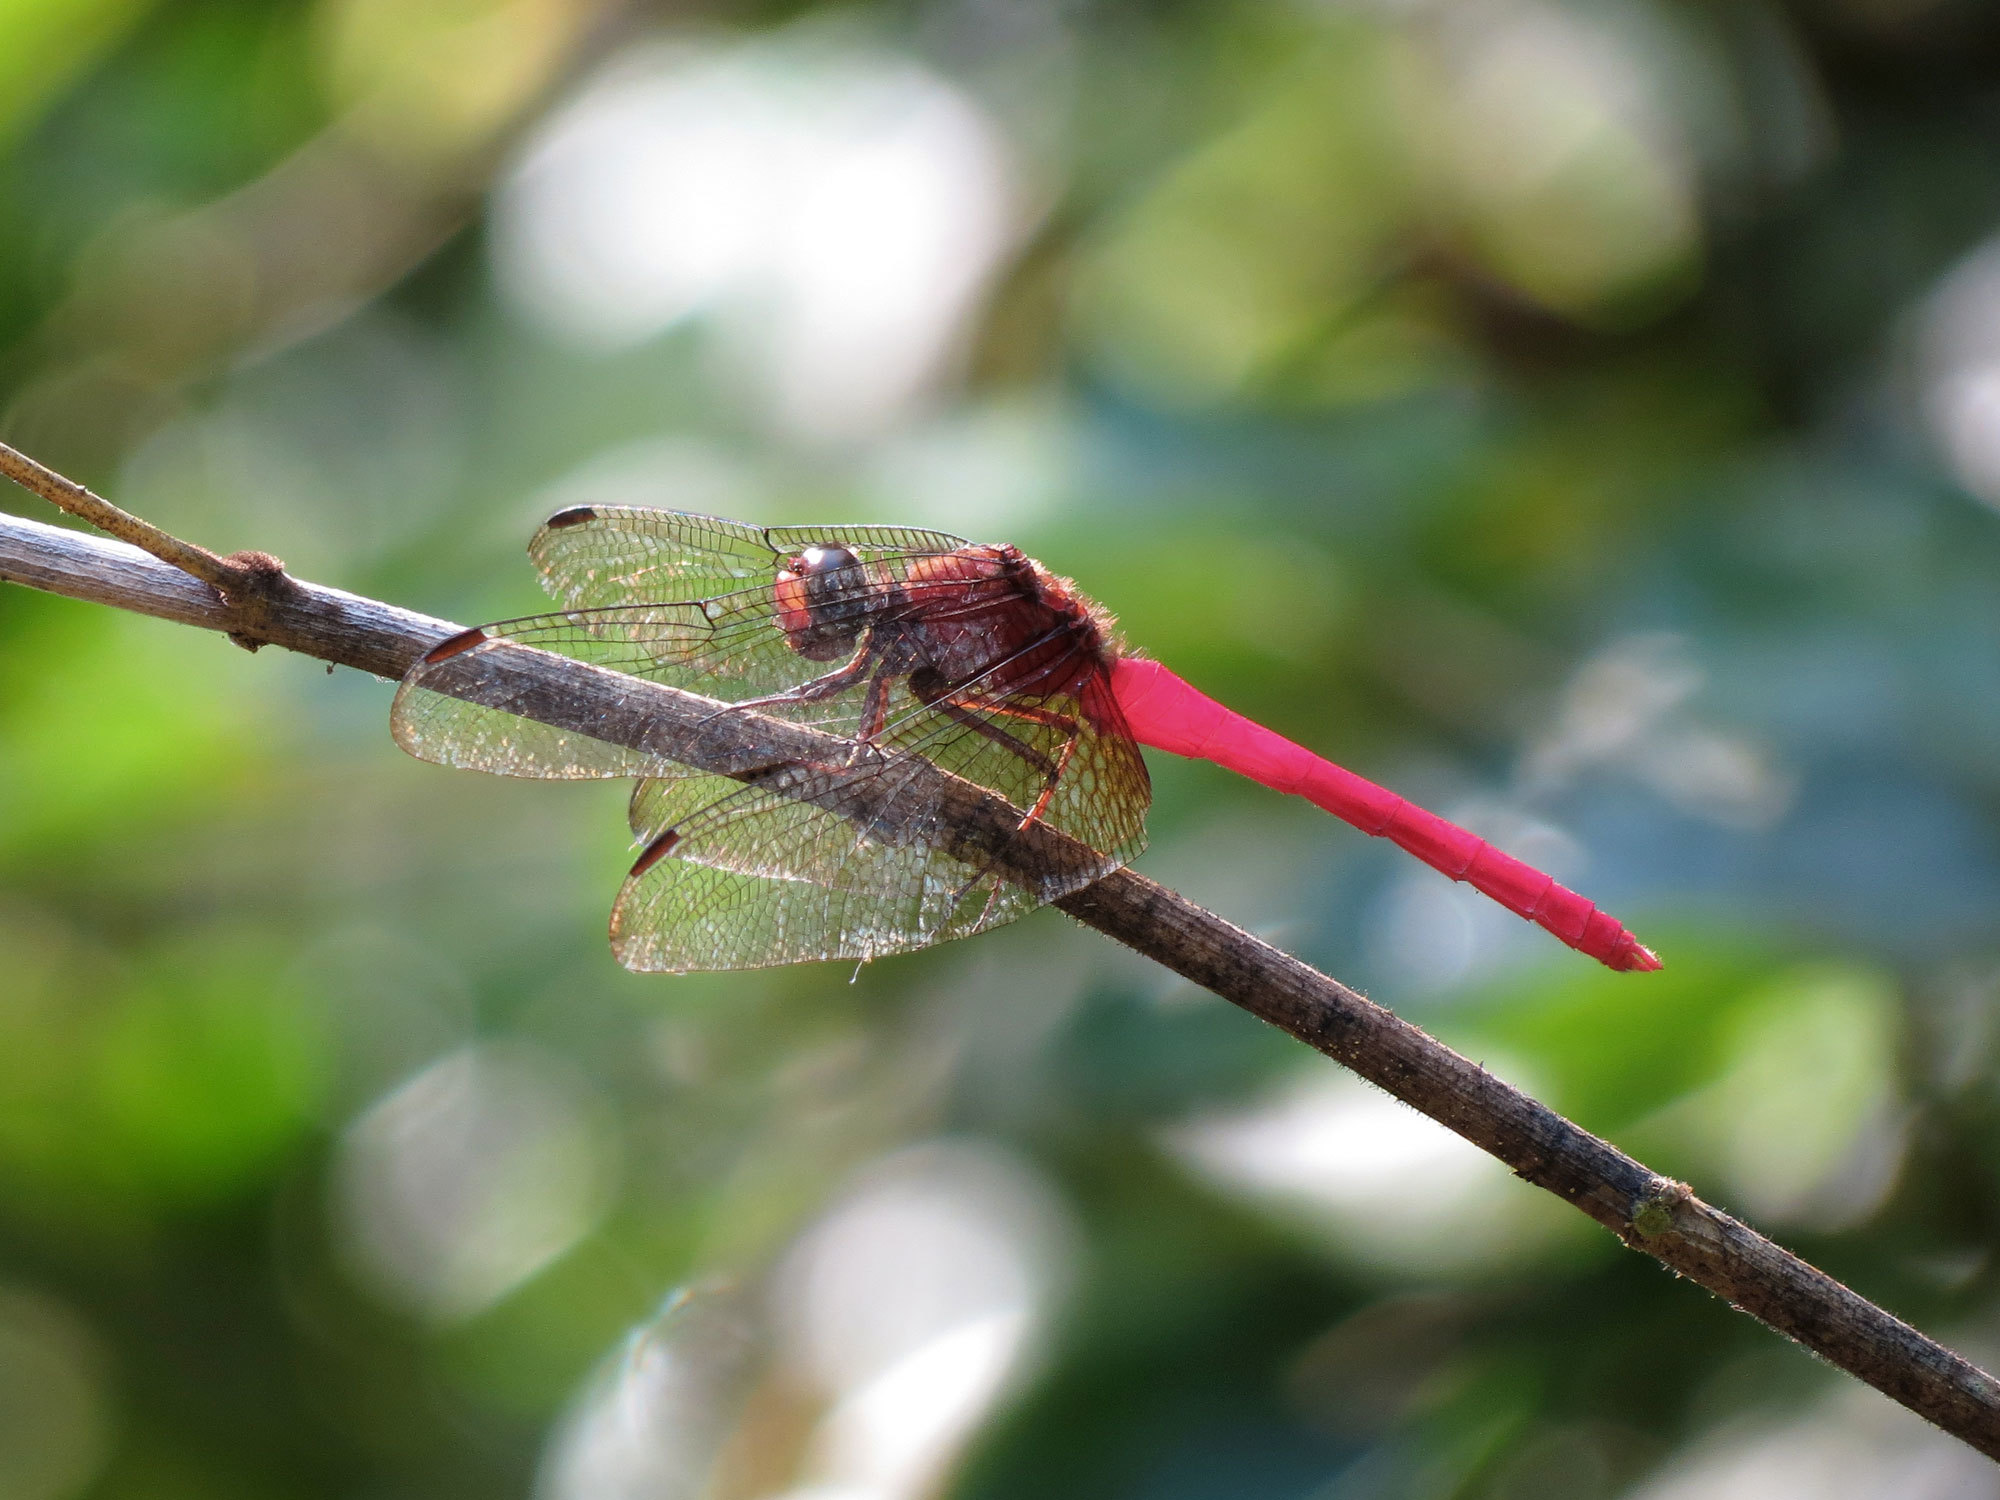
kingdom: Animalia
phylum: Arthropoda
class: Insecta
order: Odonata
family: Libellulidae
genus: Rhodopygia
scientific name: Rhodopygia hinei
